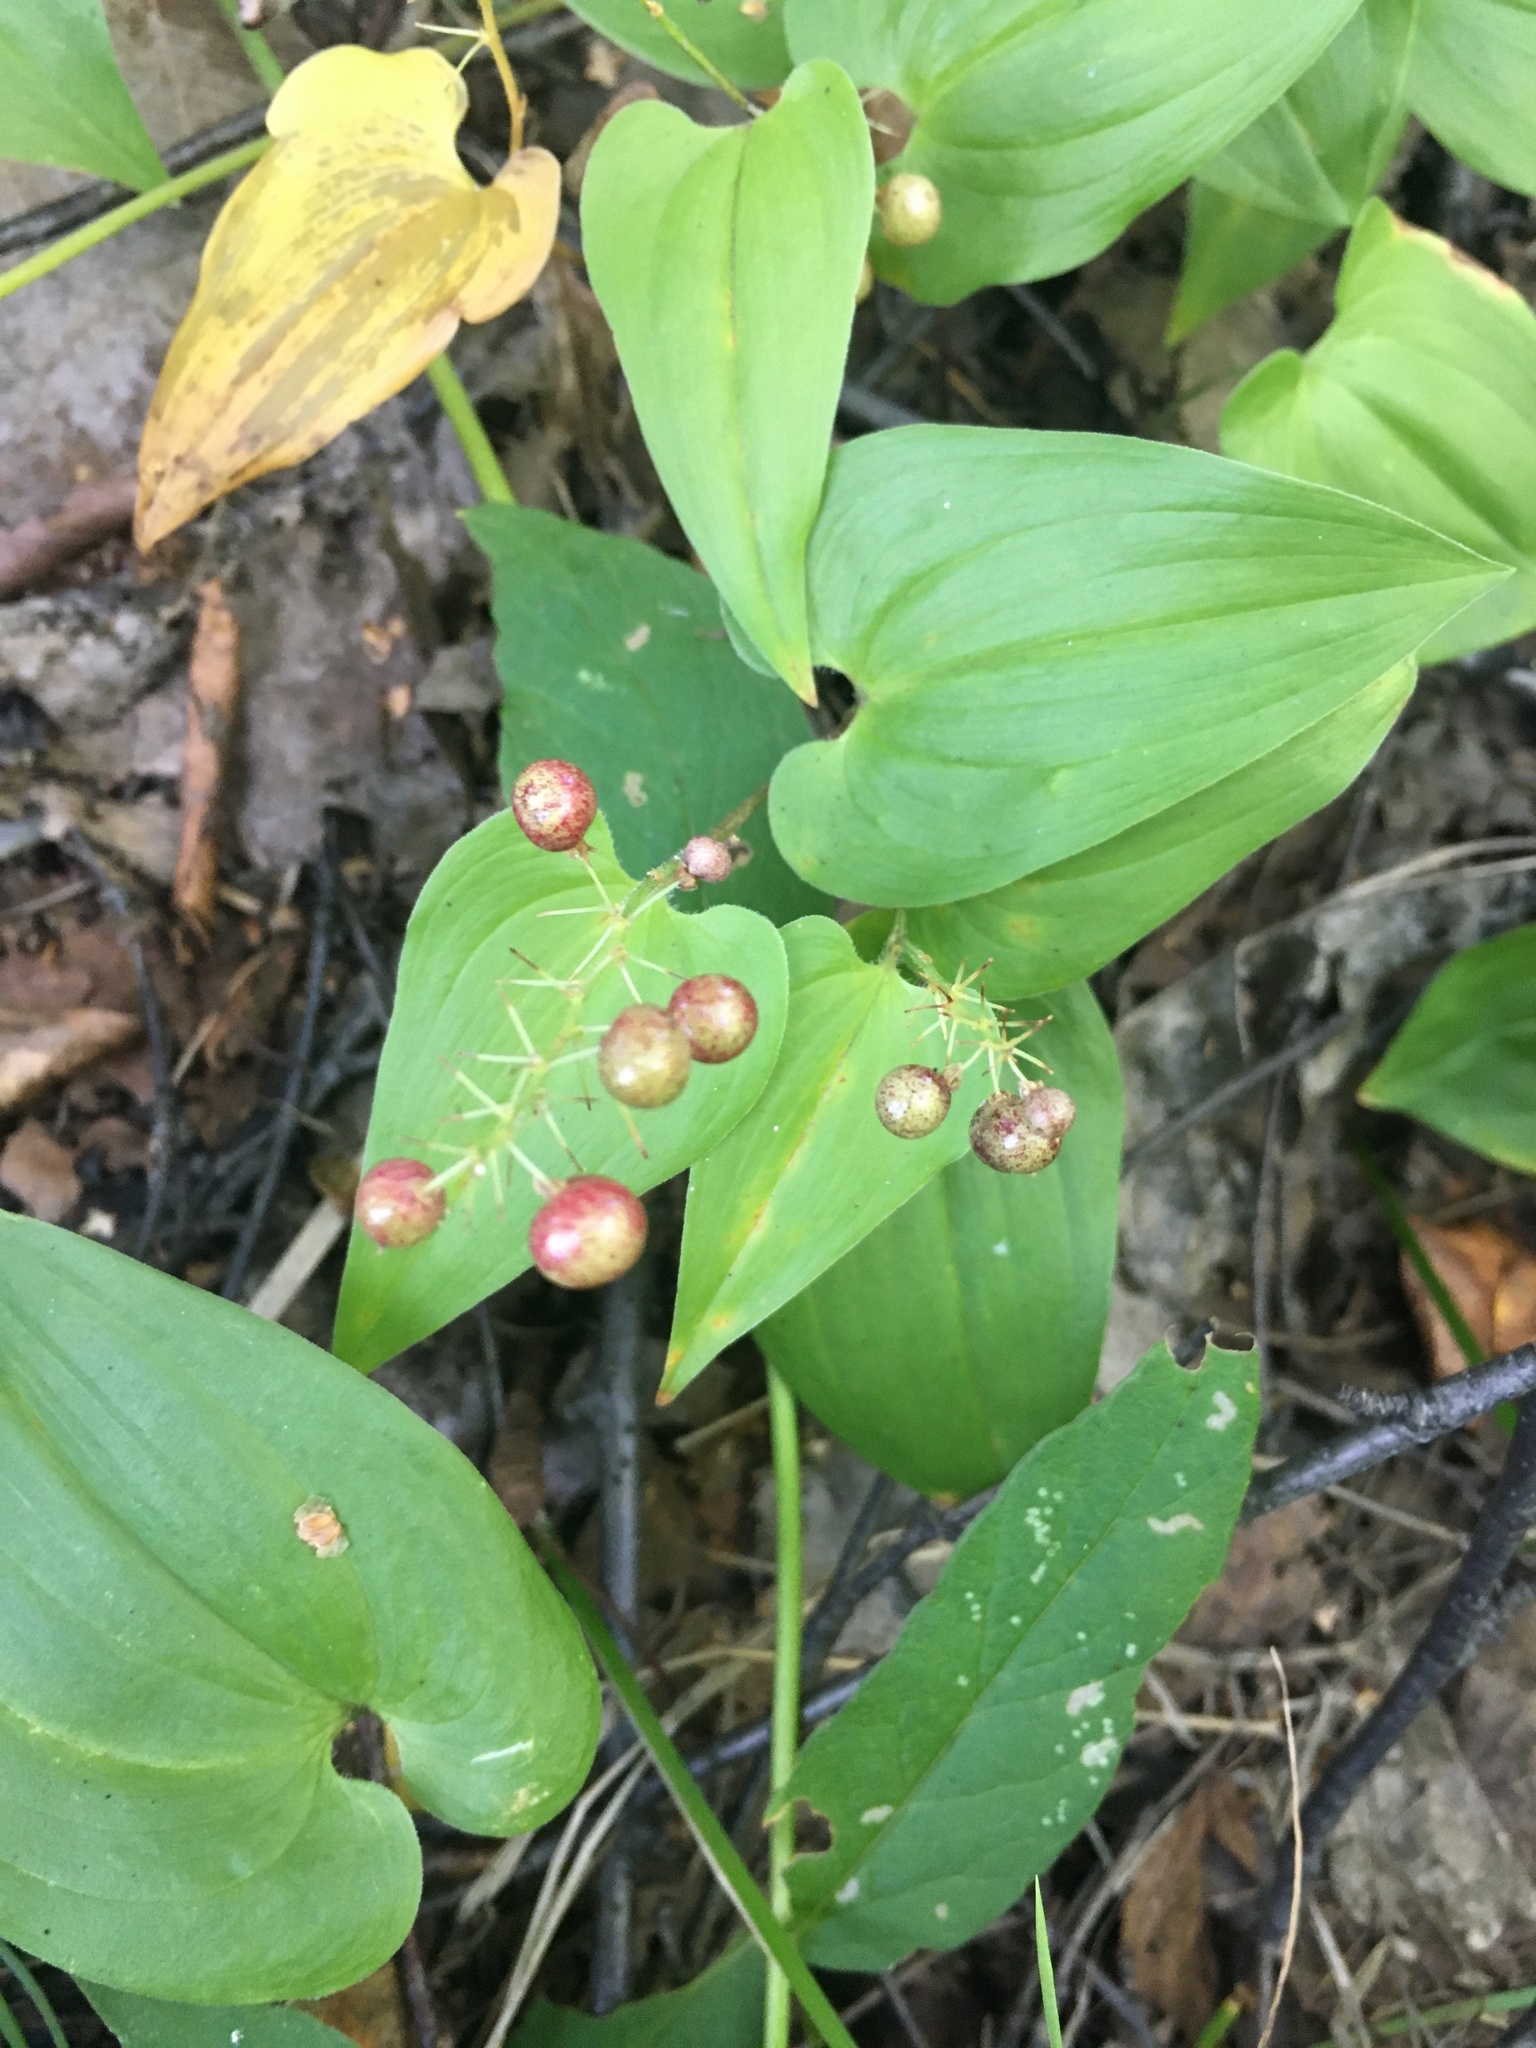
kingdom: Plantae
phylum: Tracheophyta
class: Liliopsida
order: Asparagales
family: Asparagaceae
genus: Maianthemum
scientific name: Maianthemum bifolium
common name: May lily
